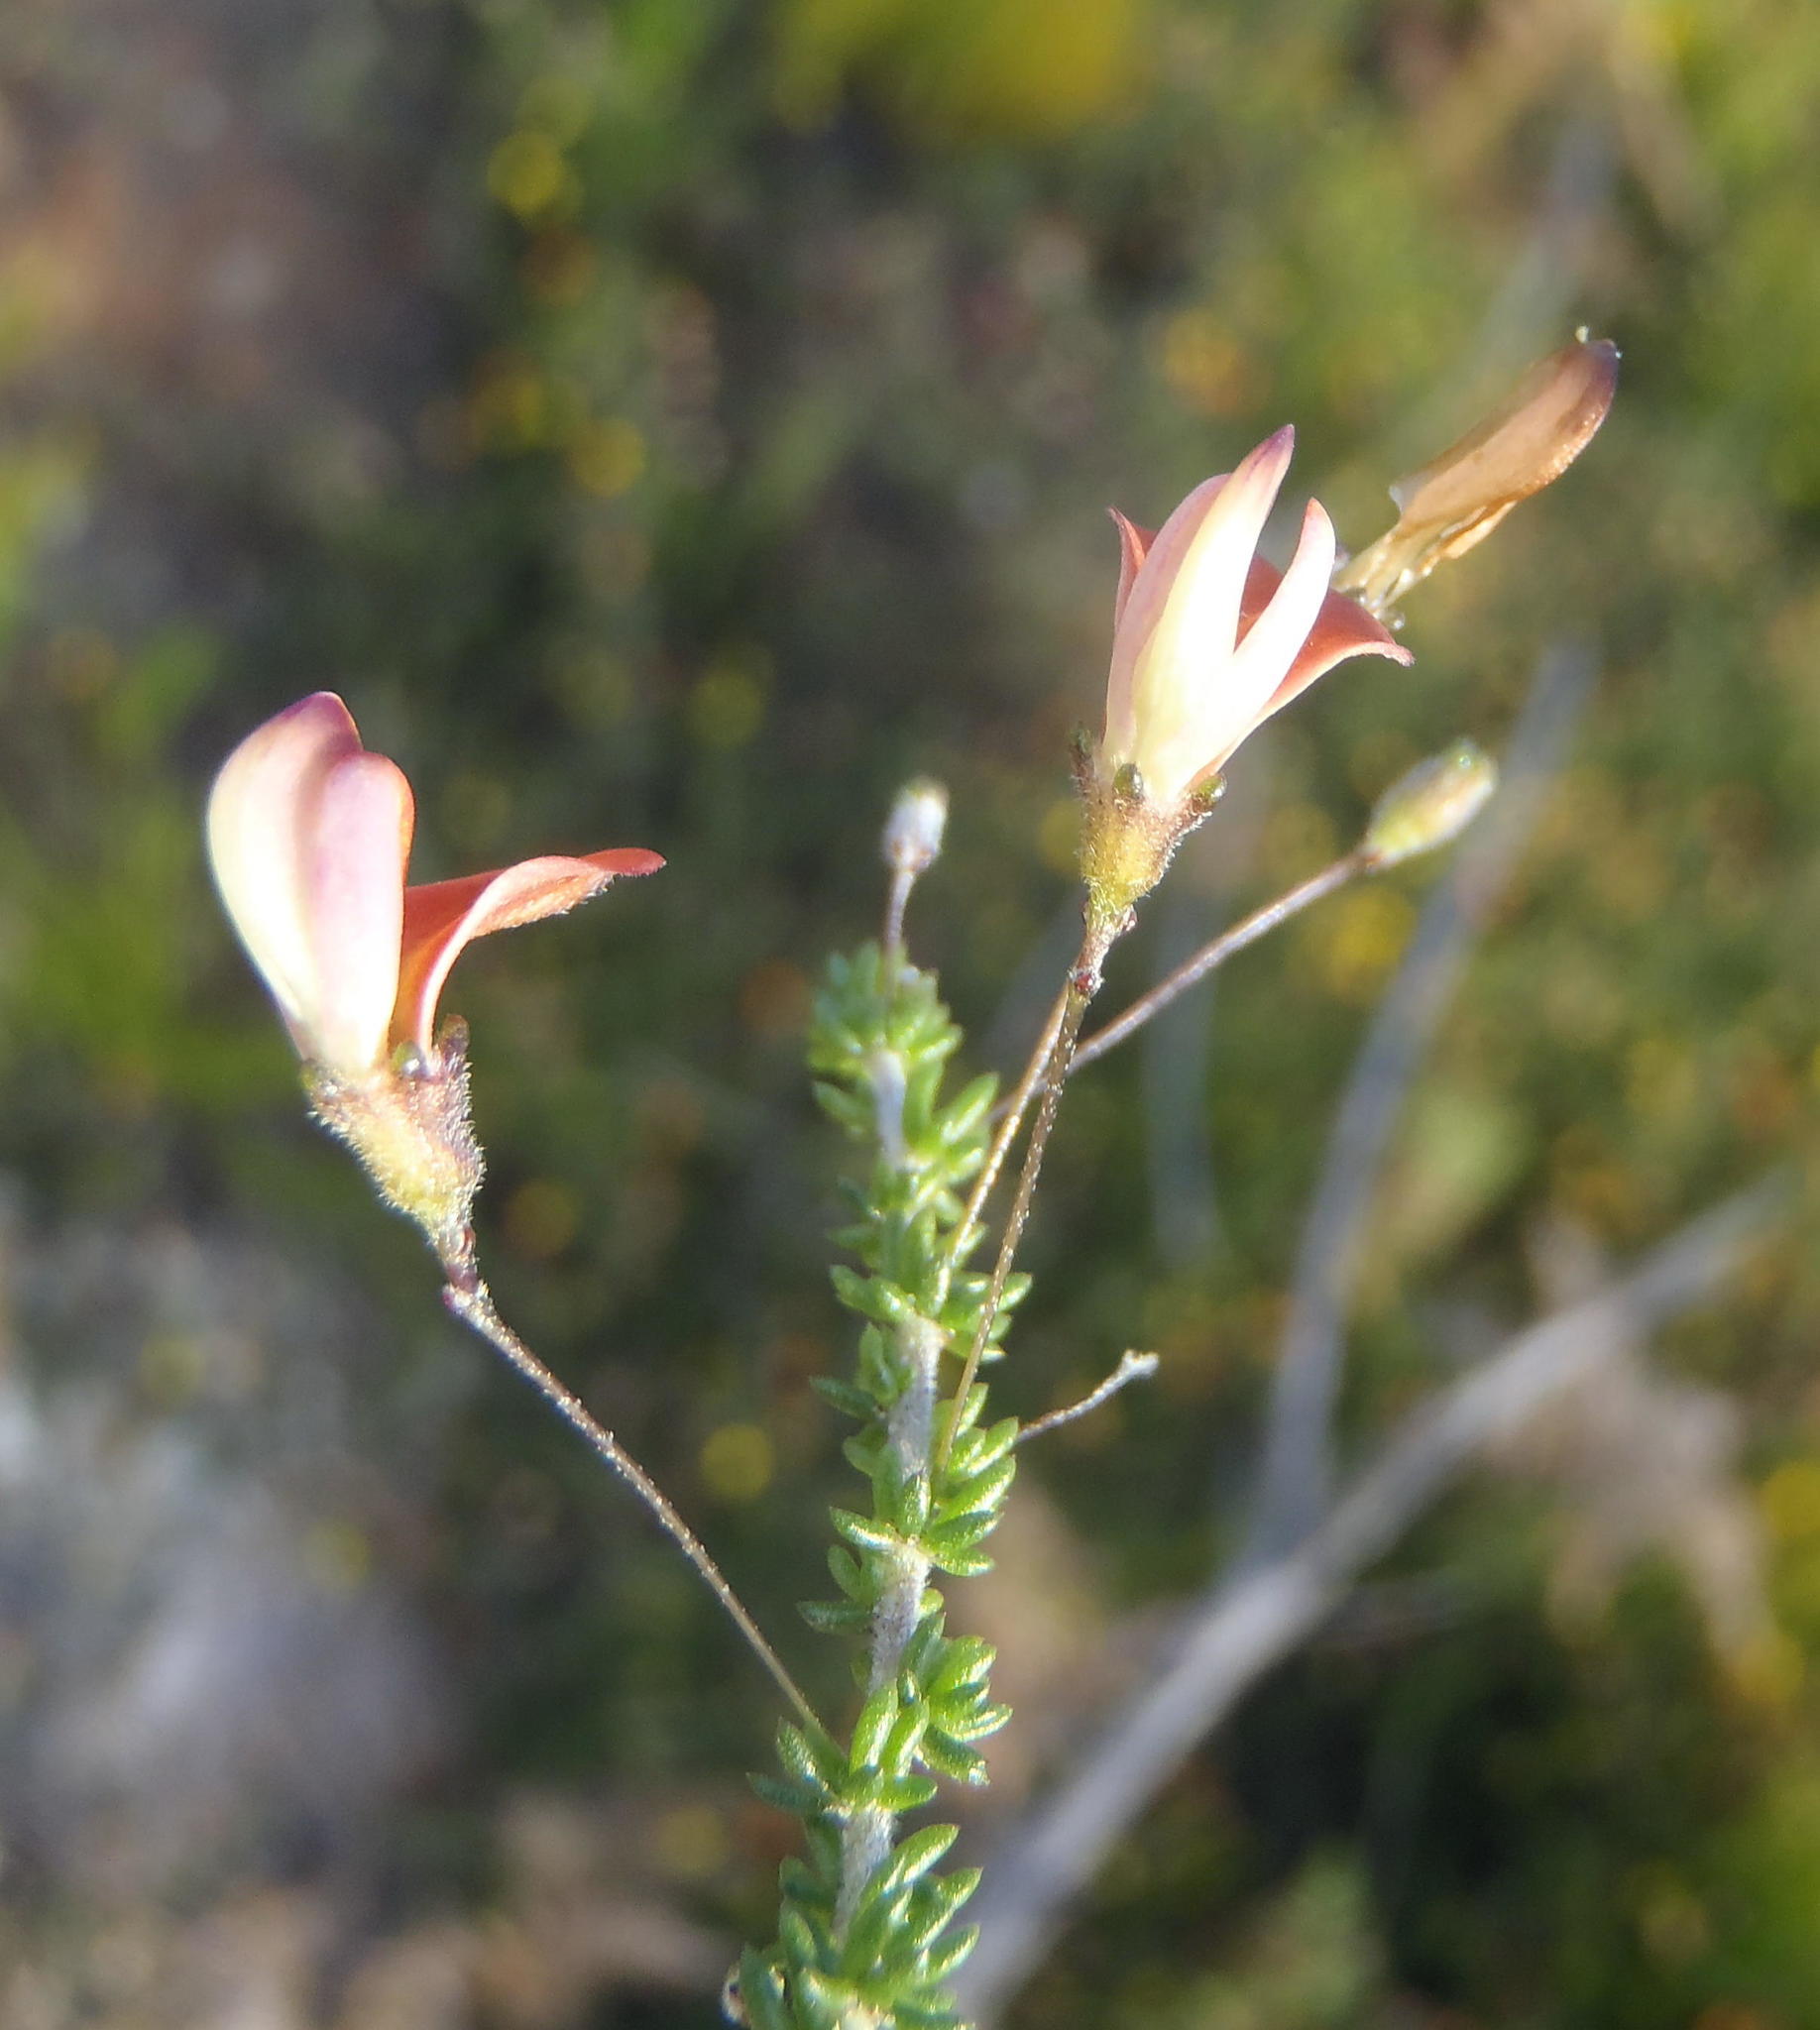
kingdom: Plantae
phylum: Tracheophyta
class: Magnoliopsida
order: Fabales
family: Fabaceae
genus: Aspalathus
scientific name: Aspalathus tenuissima
